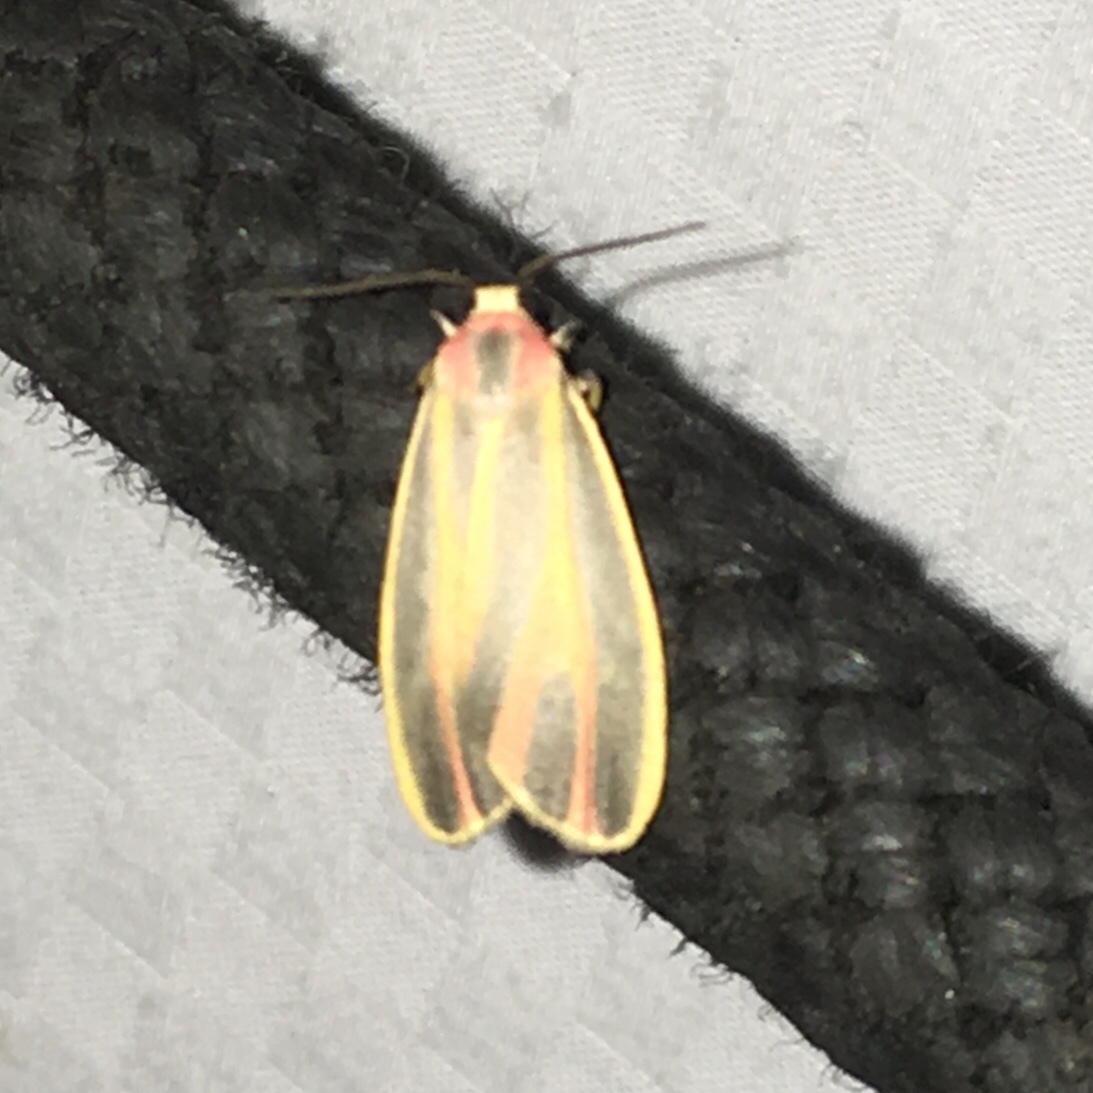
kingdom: Animalia
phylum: Arthropoda
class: Insecta
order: Lepidoptera
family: Erebidae
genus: Hypoprepia
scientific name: Hypoprepia fucosa
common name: Painted lichen moth
